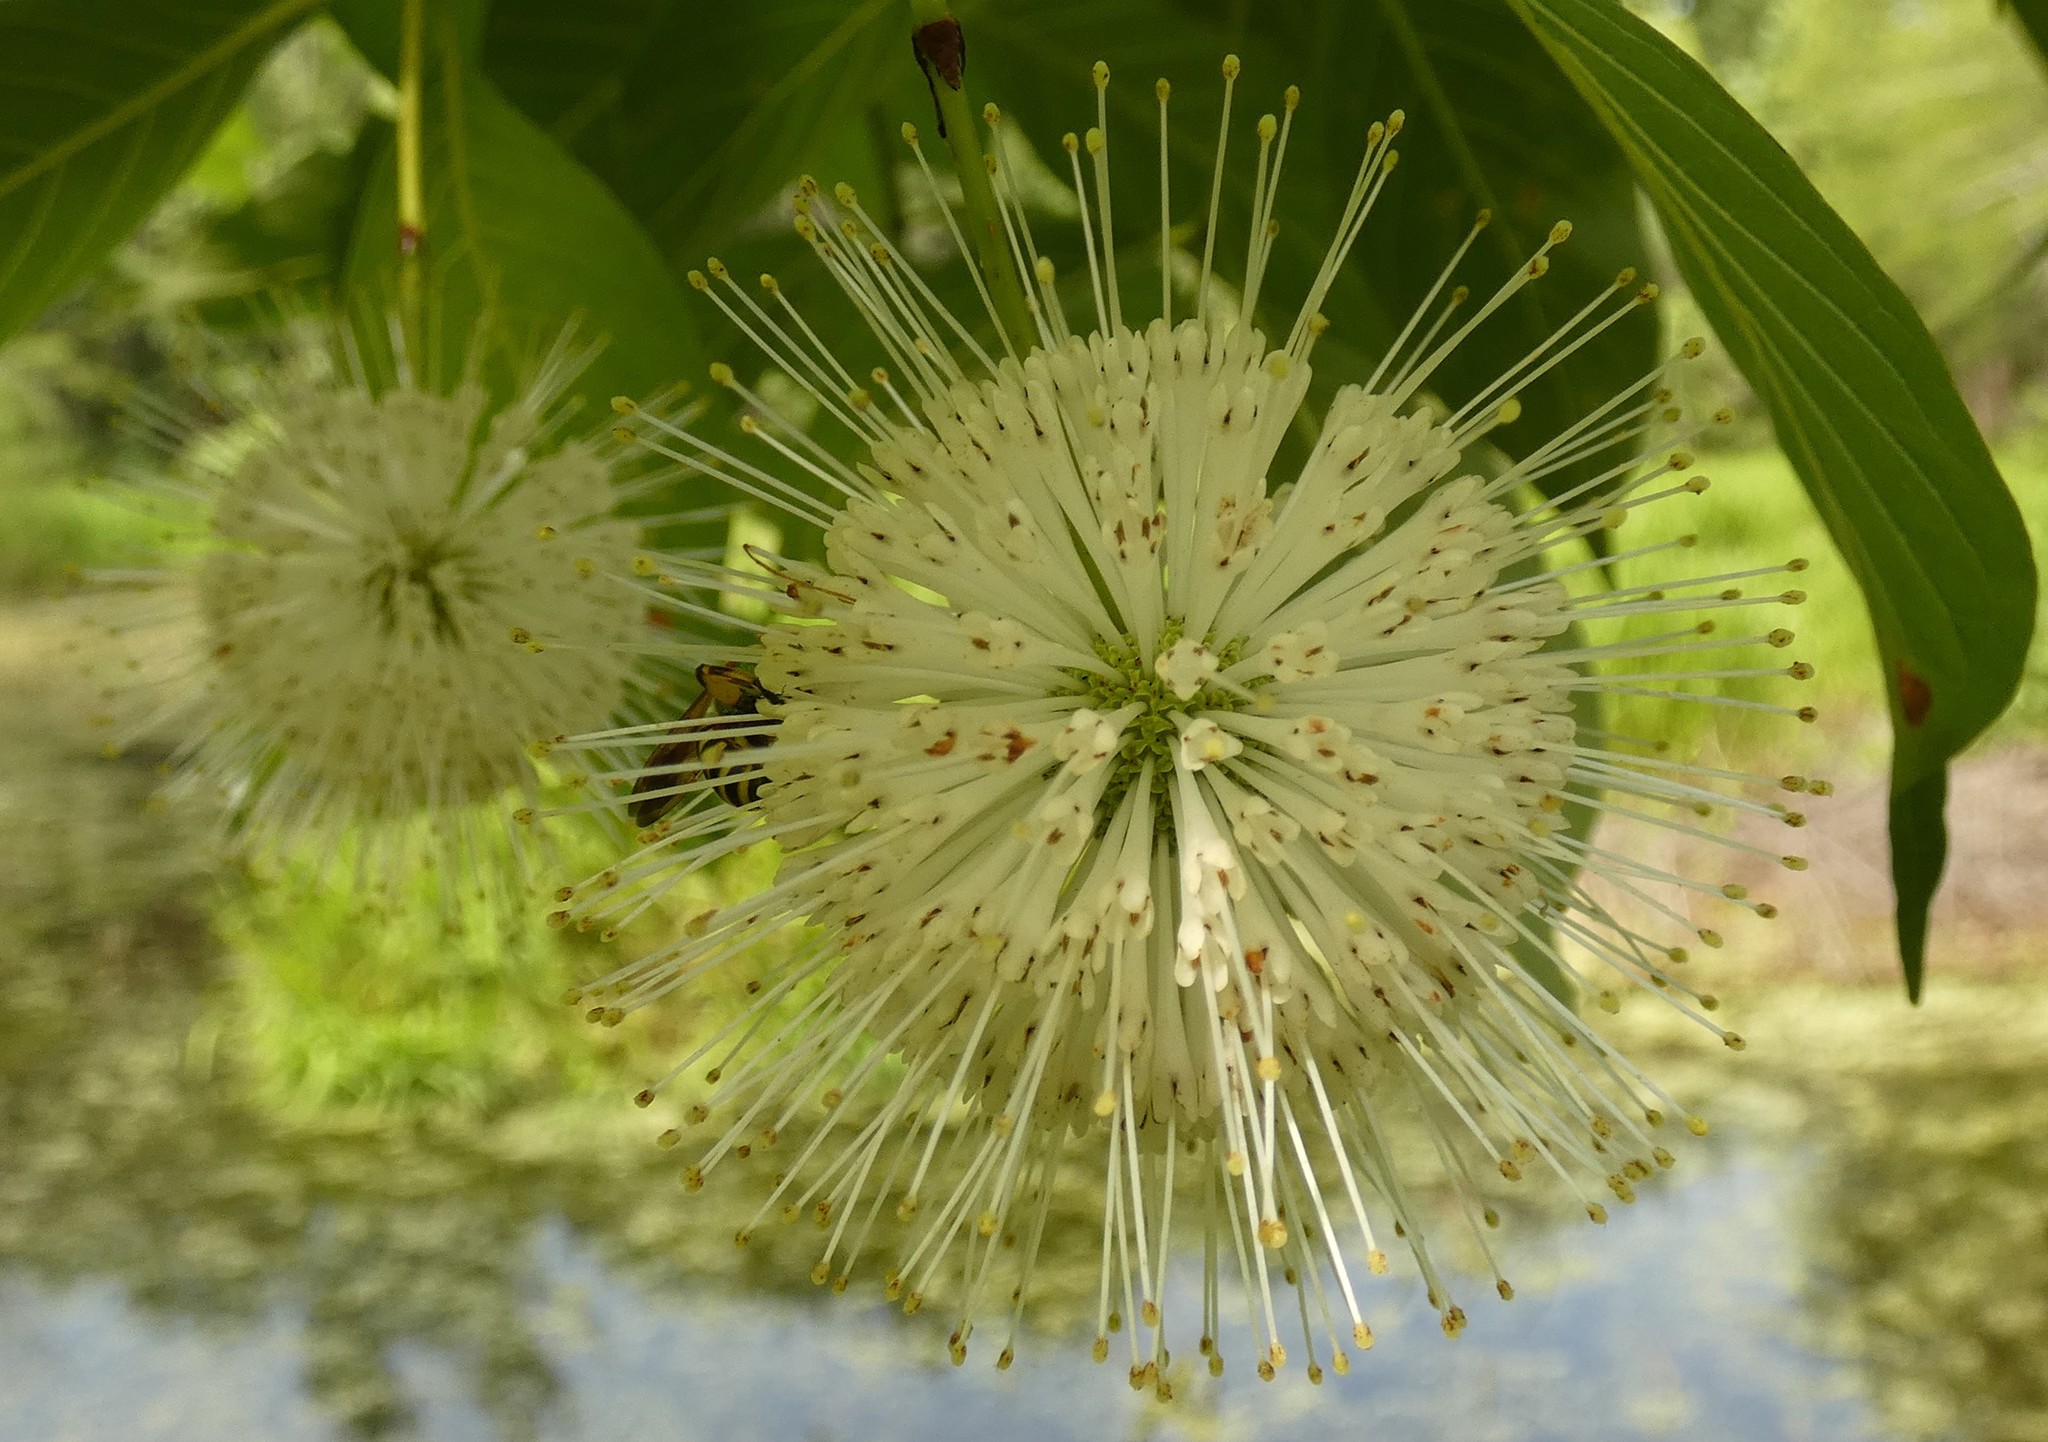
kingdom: Plantae
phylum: Tracheophyta
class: Magnoliopsida
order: Gentianales
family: Rubiaceae
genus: Cephalanthus
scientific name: Cephalanthus occidentalis
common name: Button-willow
